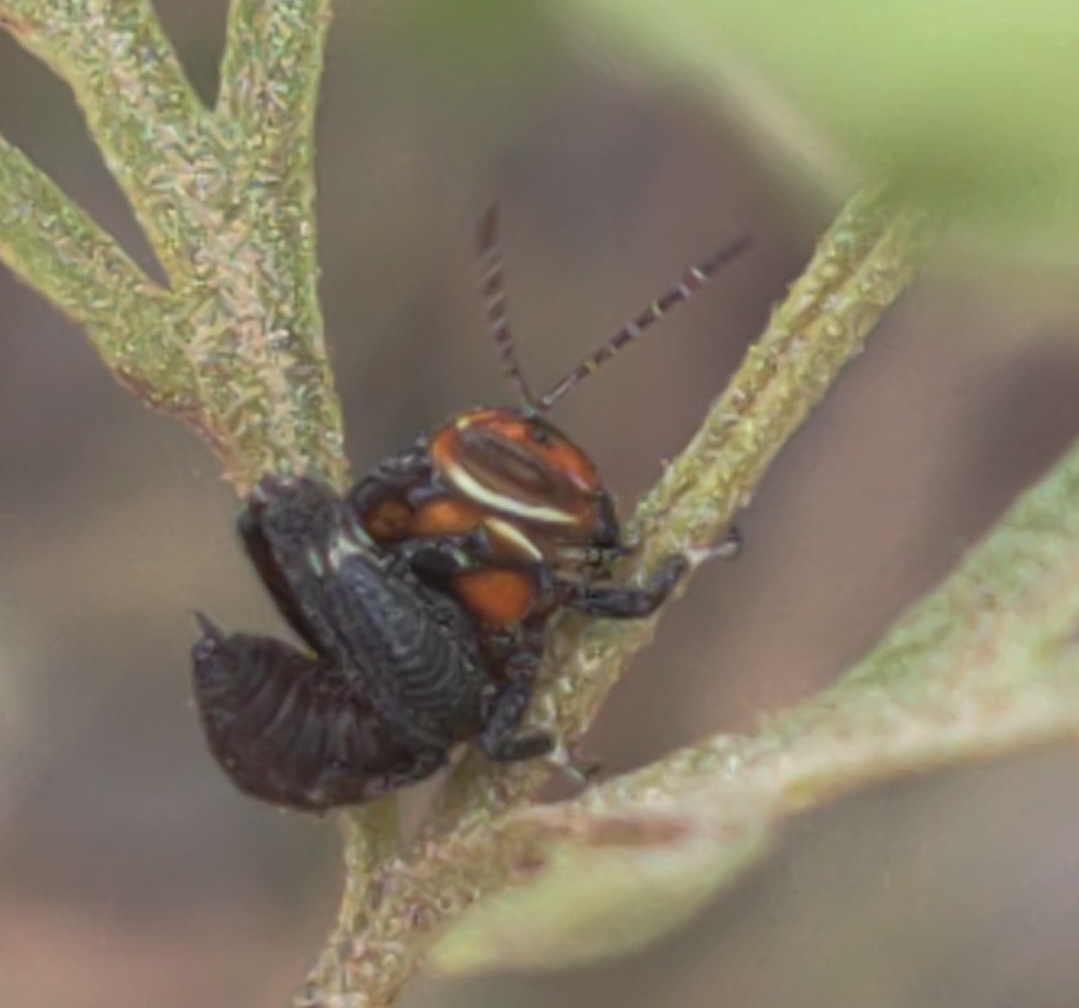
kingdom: Animalia
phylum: Arthropoda
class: Insecta
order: Orthoptera
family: Acrididae
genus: Eotettix
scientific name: Eotettix pusillus
